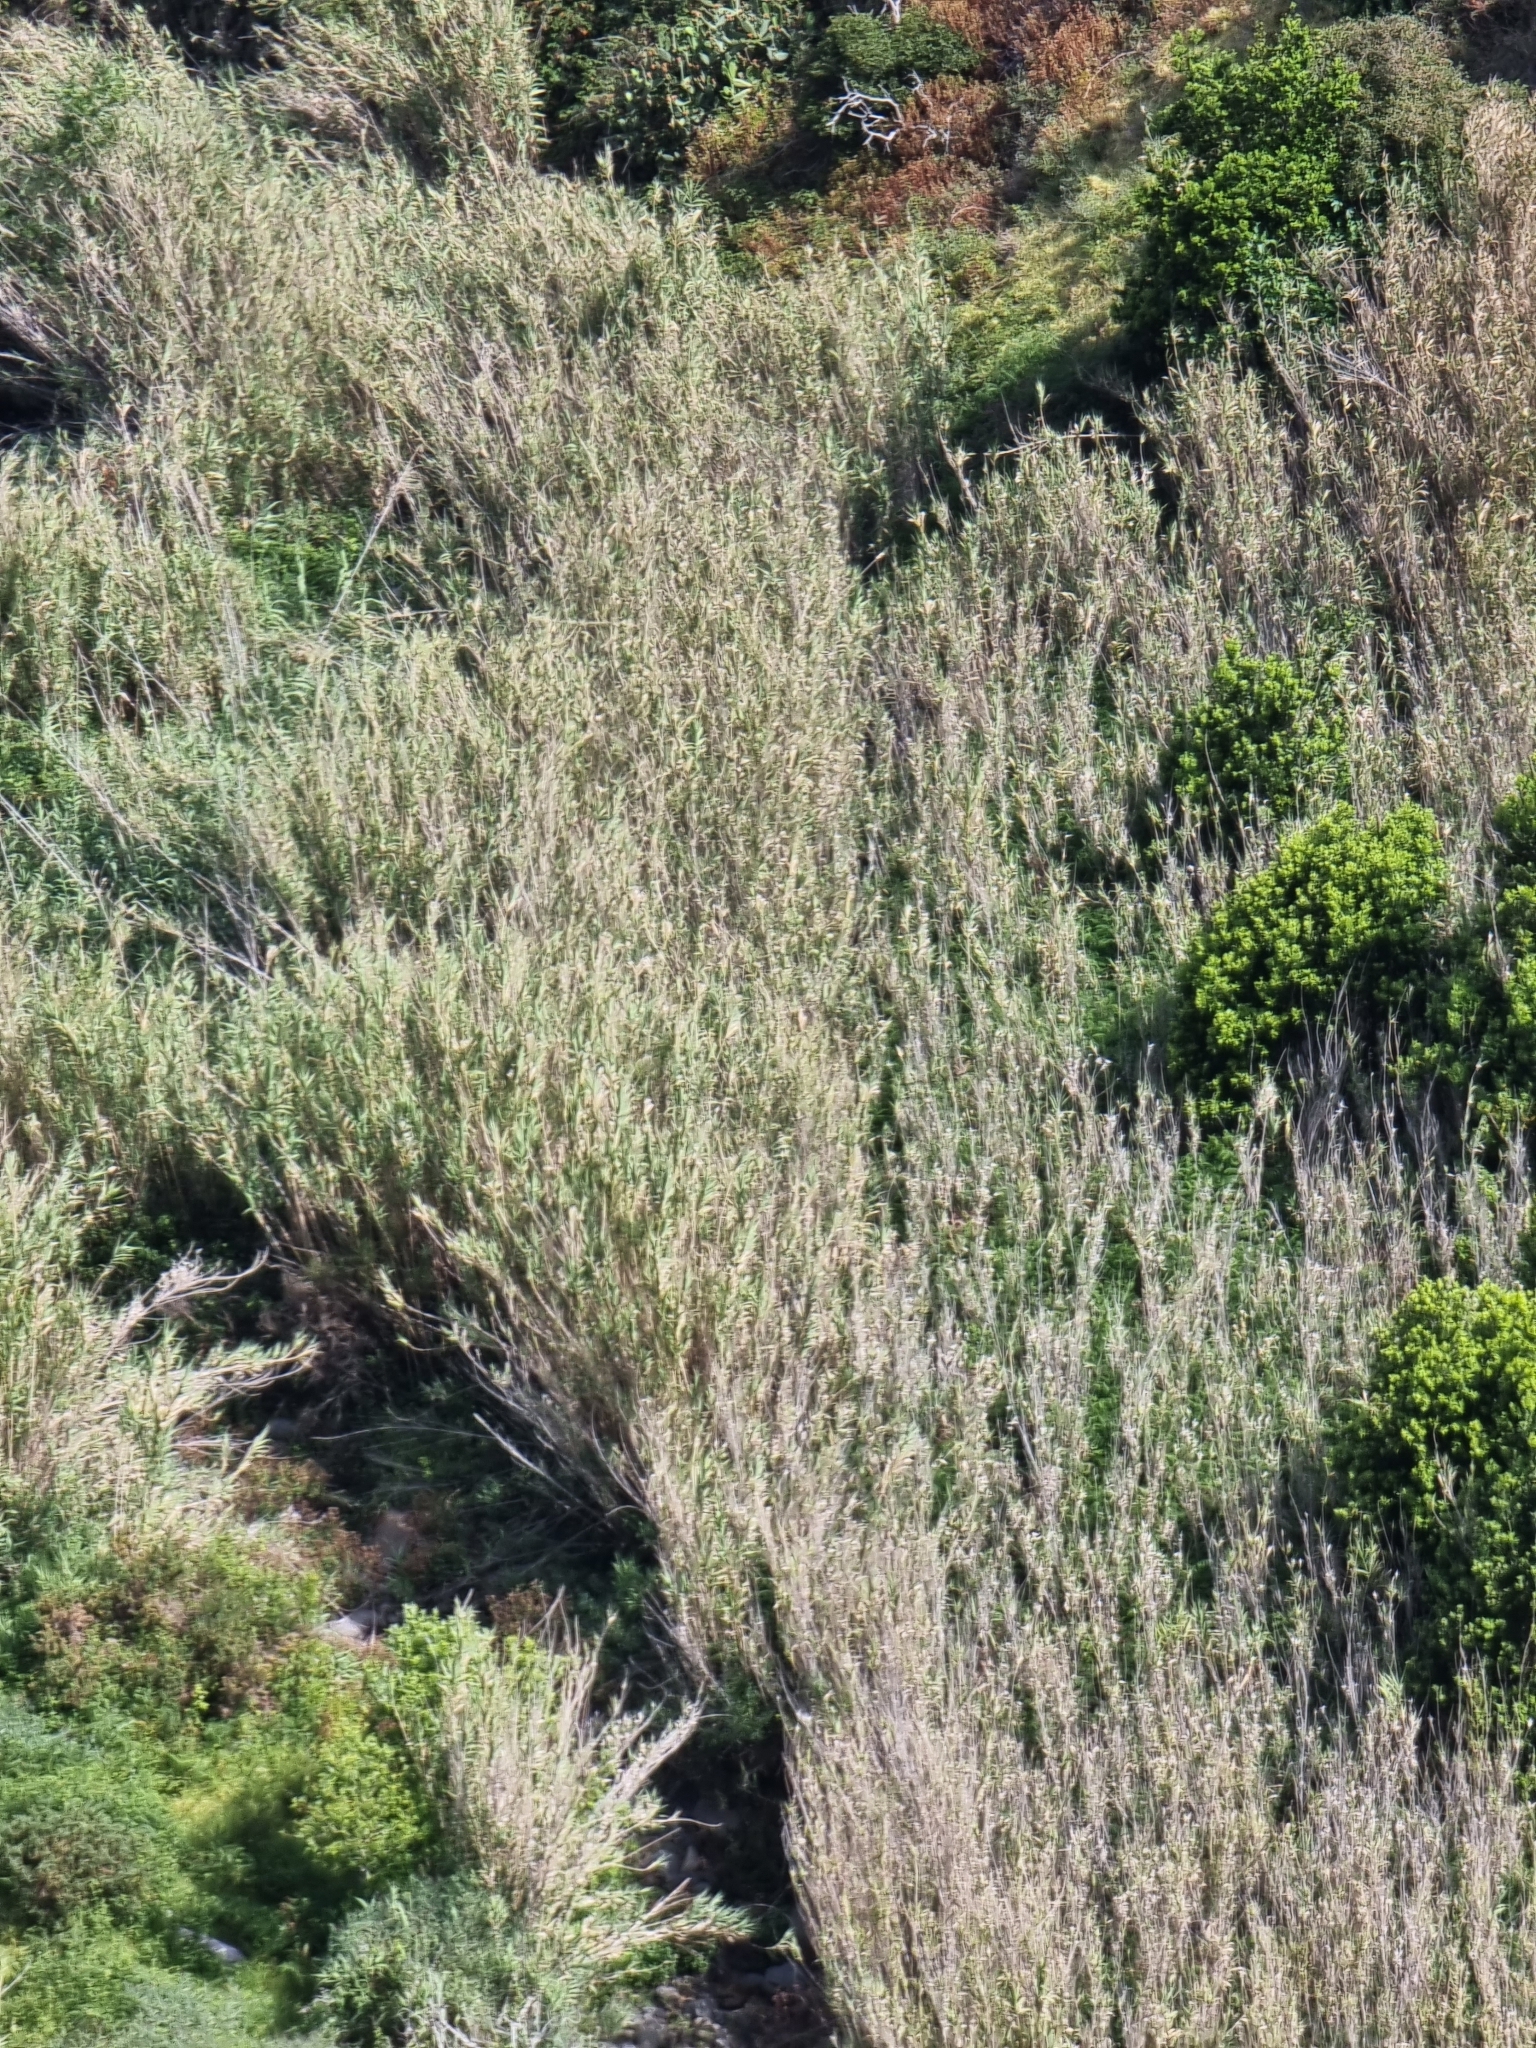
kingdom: Plantae
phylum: Tracheophyta
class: Liliopsida
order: Poales
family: Poaceae
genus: Arundo
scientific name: Arundo donax
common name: Giant reed
